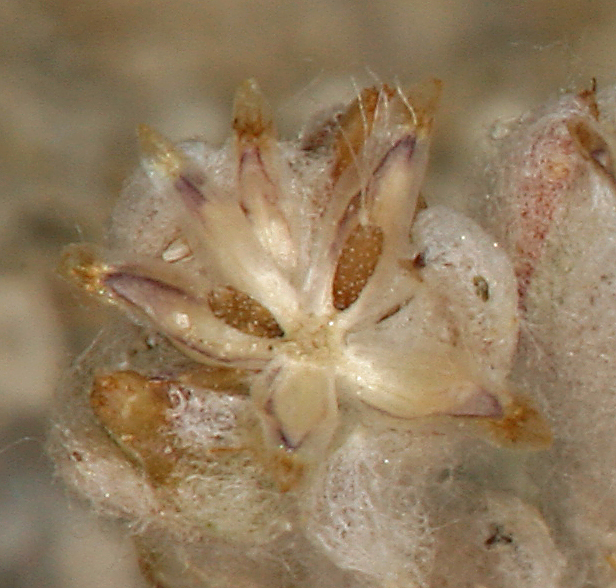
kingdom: Plantae
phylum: Tracheophyta
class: Magnoliopsida
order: Asterales
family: Asteraceae
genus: Logfia
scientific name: Logfia depressa
